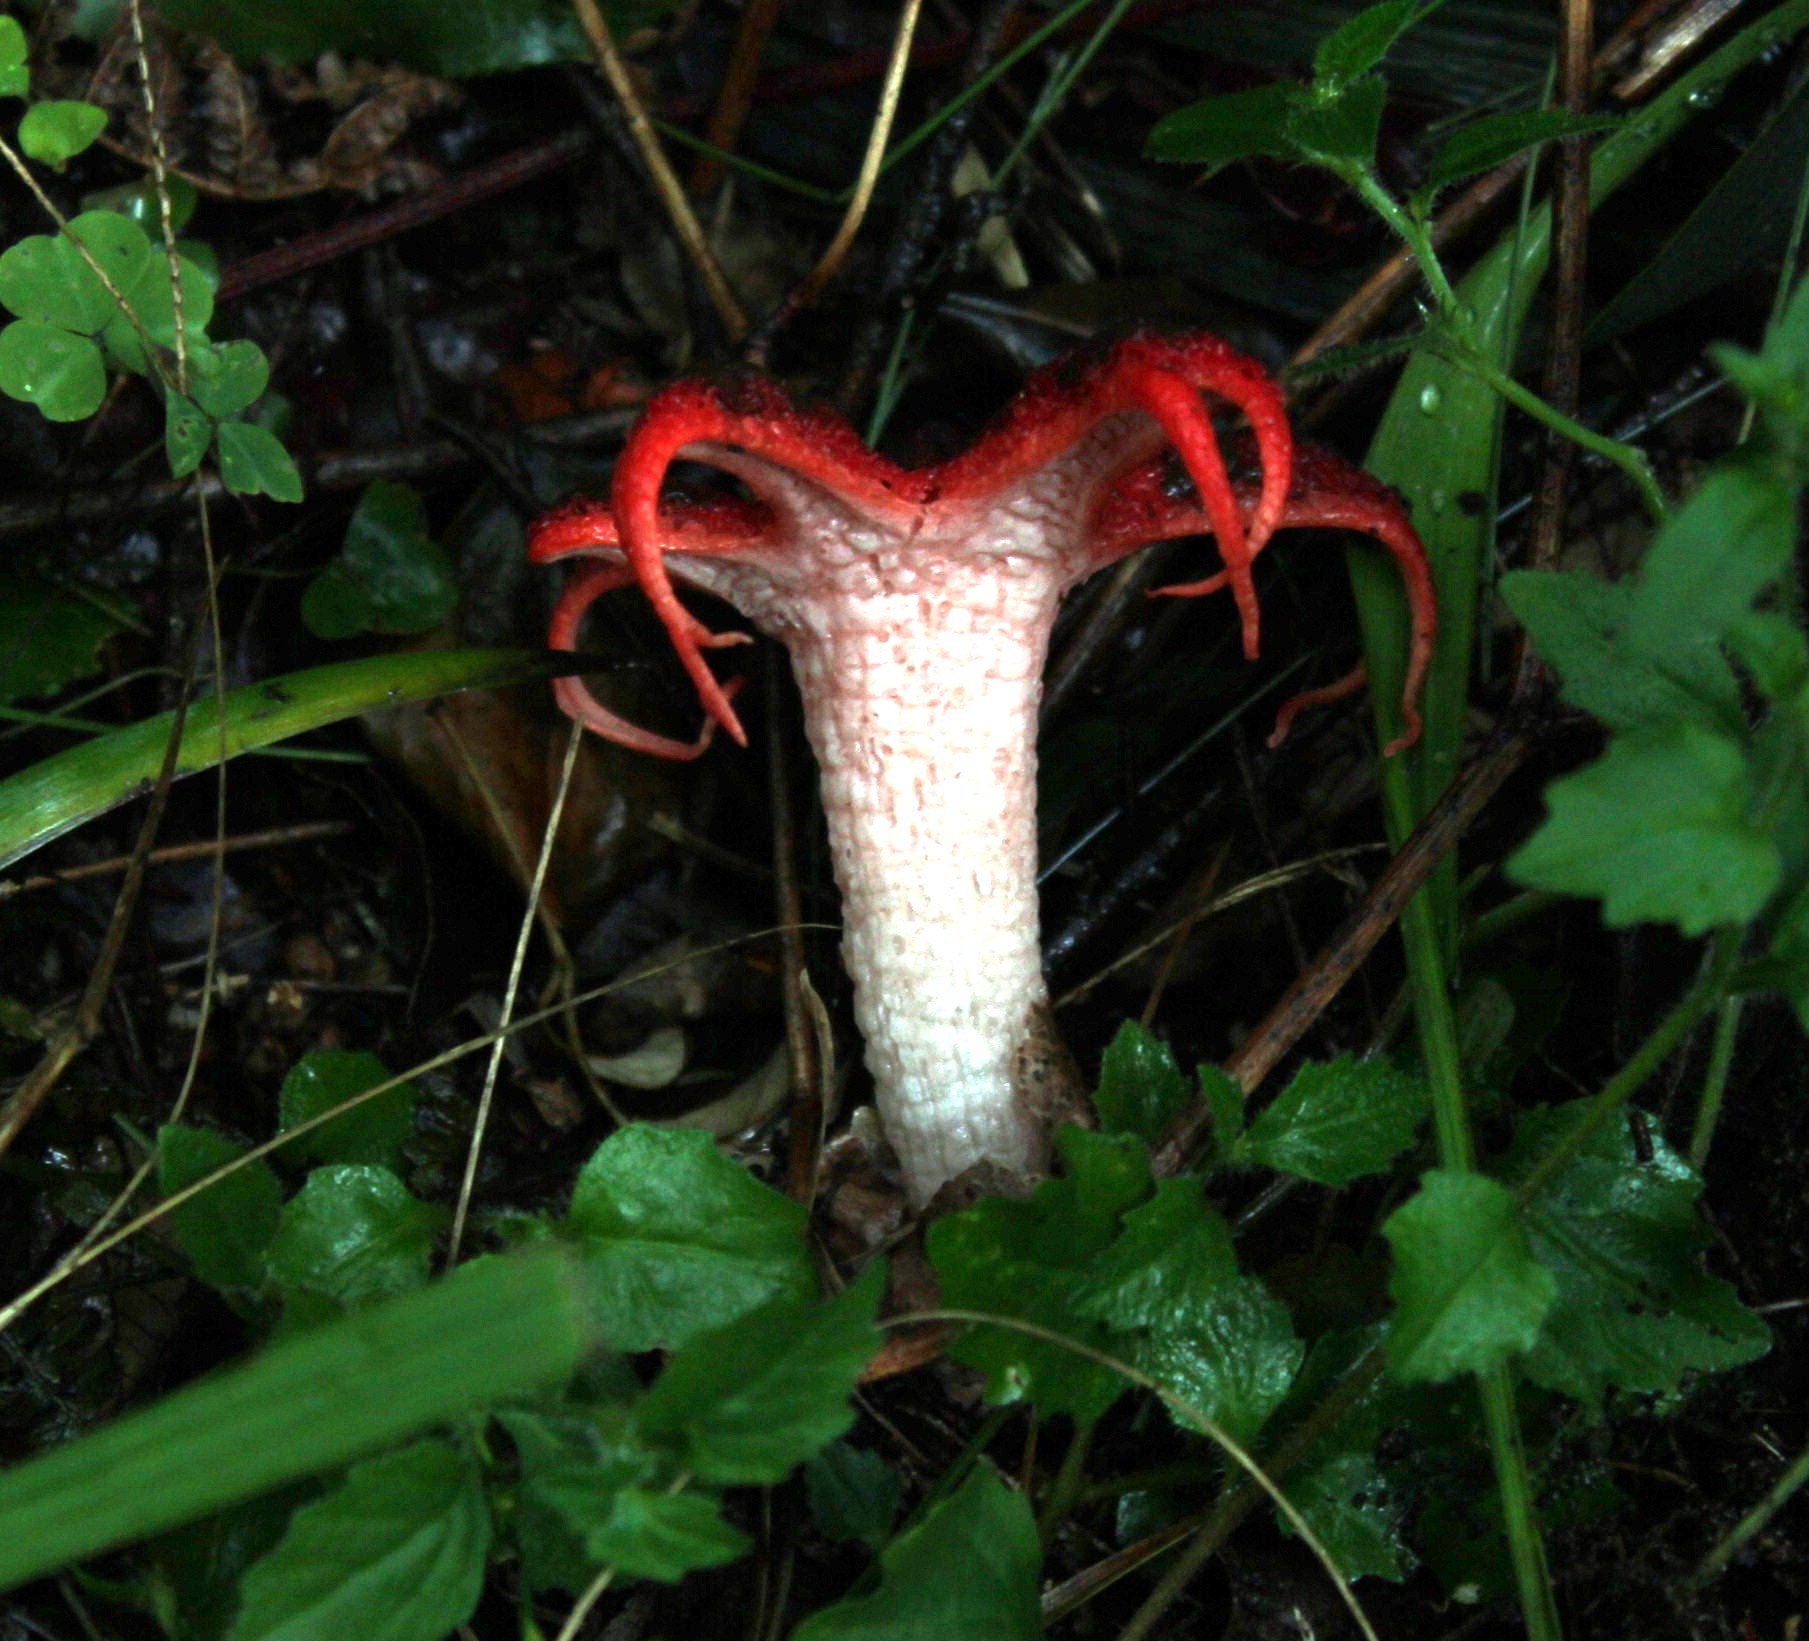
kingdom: Fungi
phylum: Basidiomycota
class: Agaricomycetes
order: Phallales
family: Phallaceae
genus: Clathrus
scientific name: Clathrus archeri
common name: Devil's fingers
